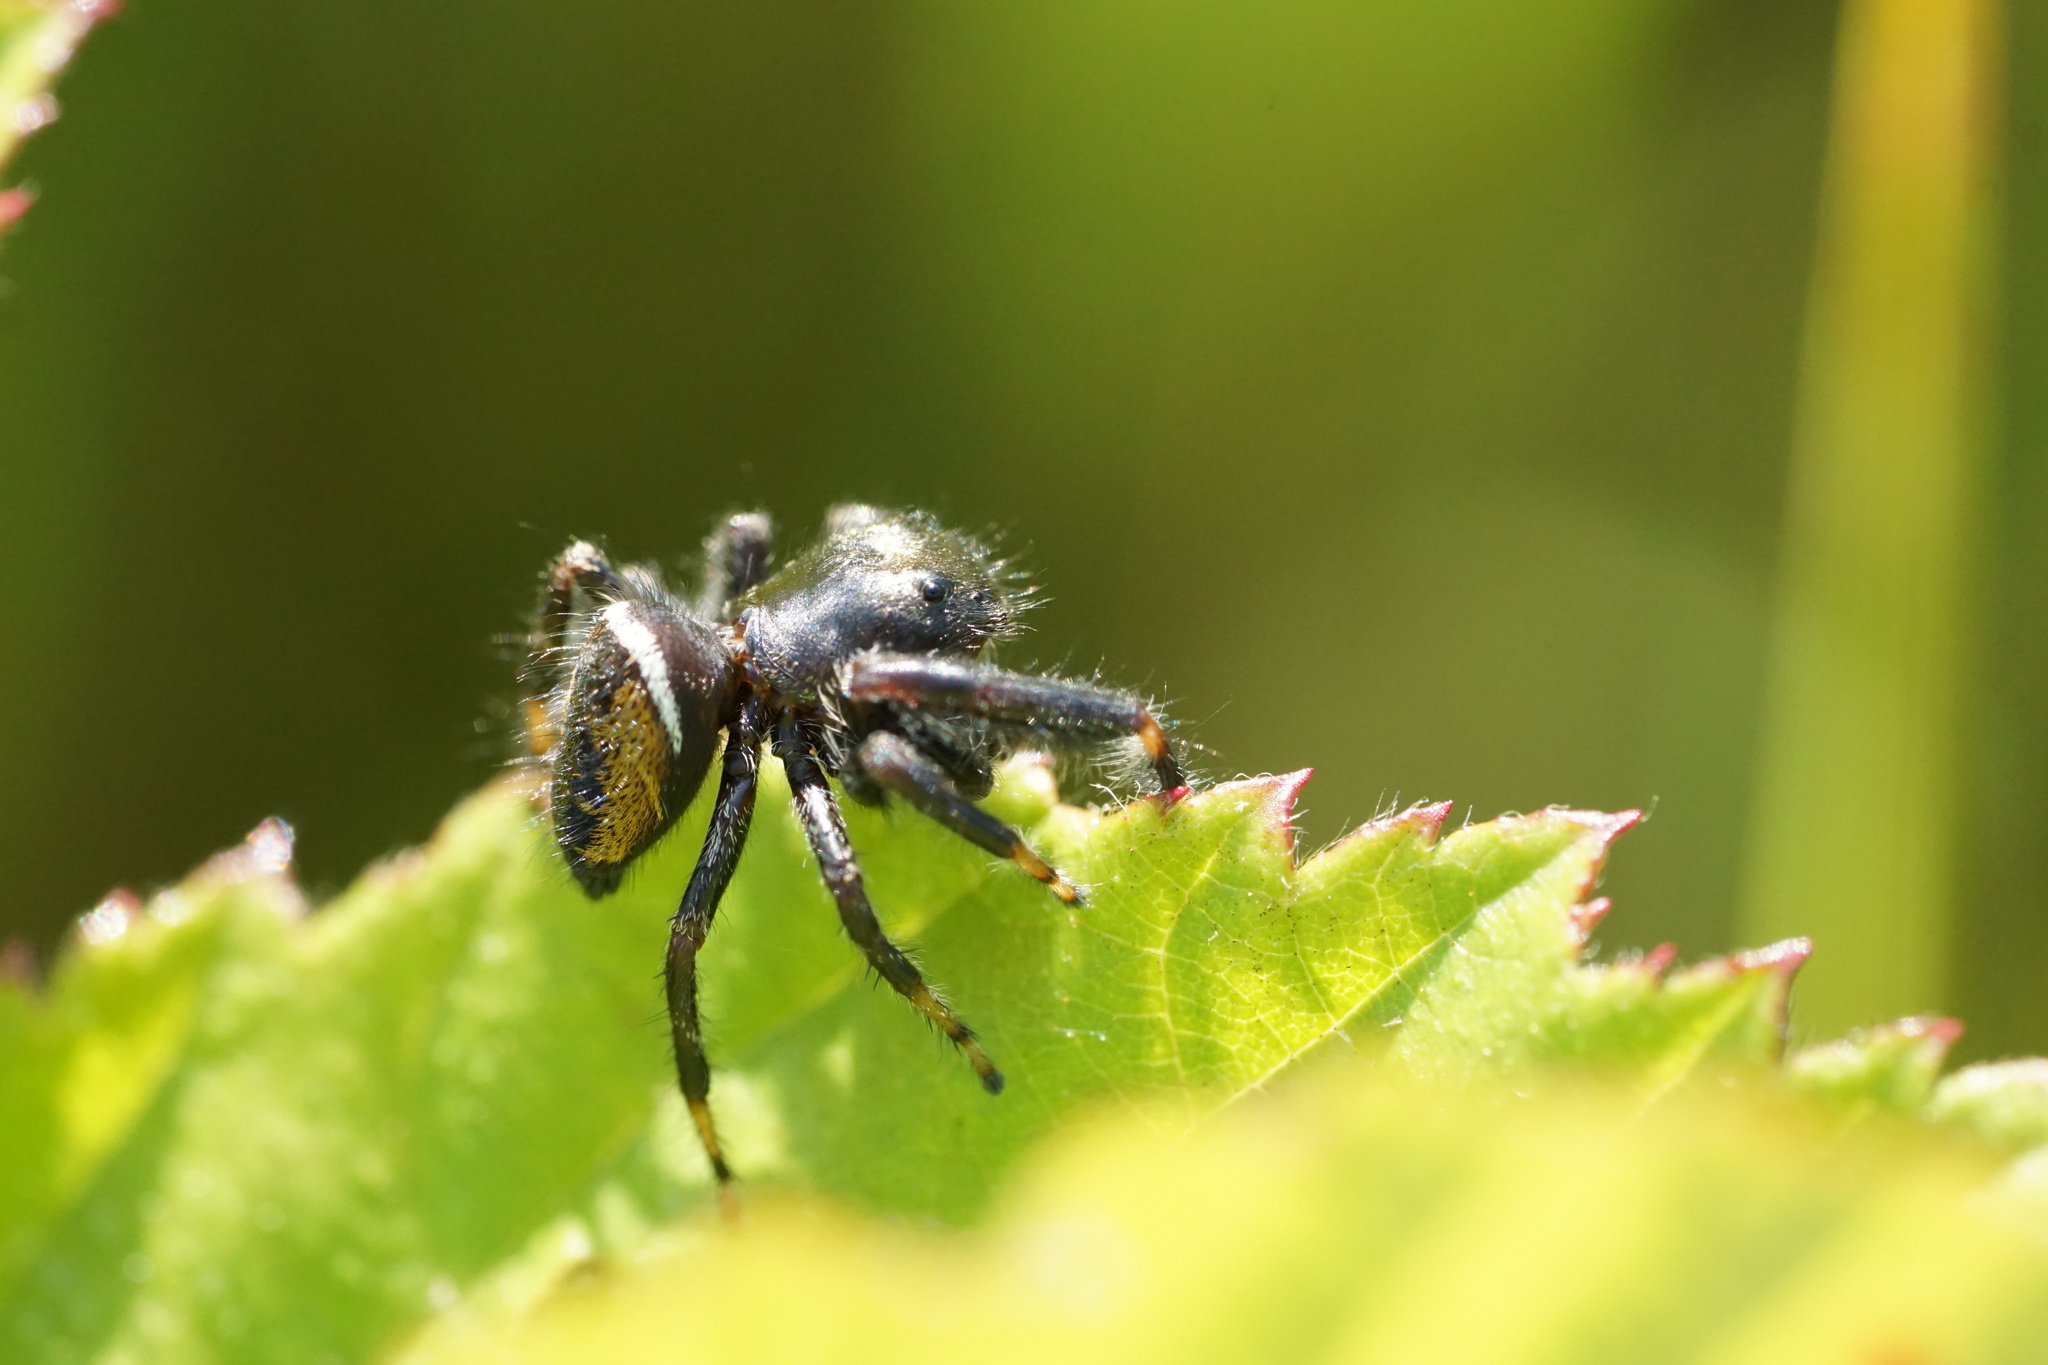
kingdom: Animalia
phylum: Arthropoda
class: Arachnida
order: Araneae
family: Salticidae
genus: Phidippus
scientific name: Phidippus clarus
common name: Brilliant jumping spider
